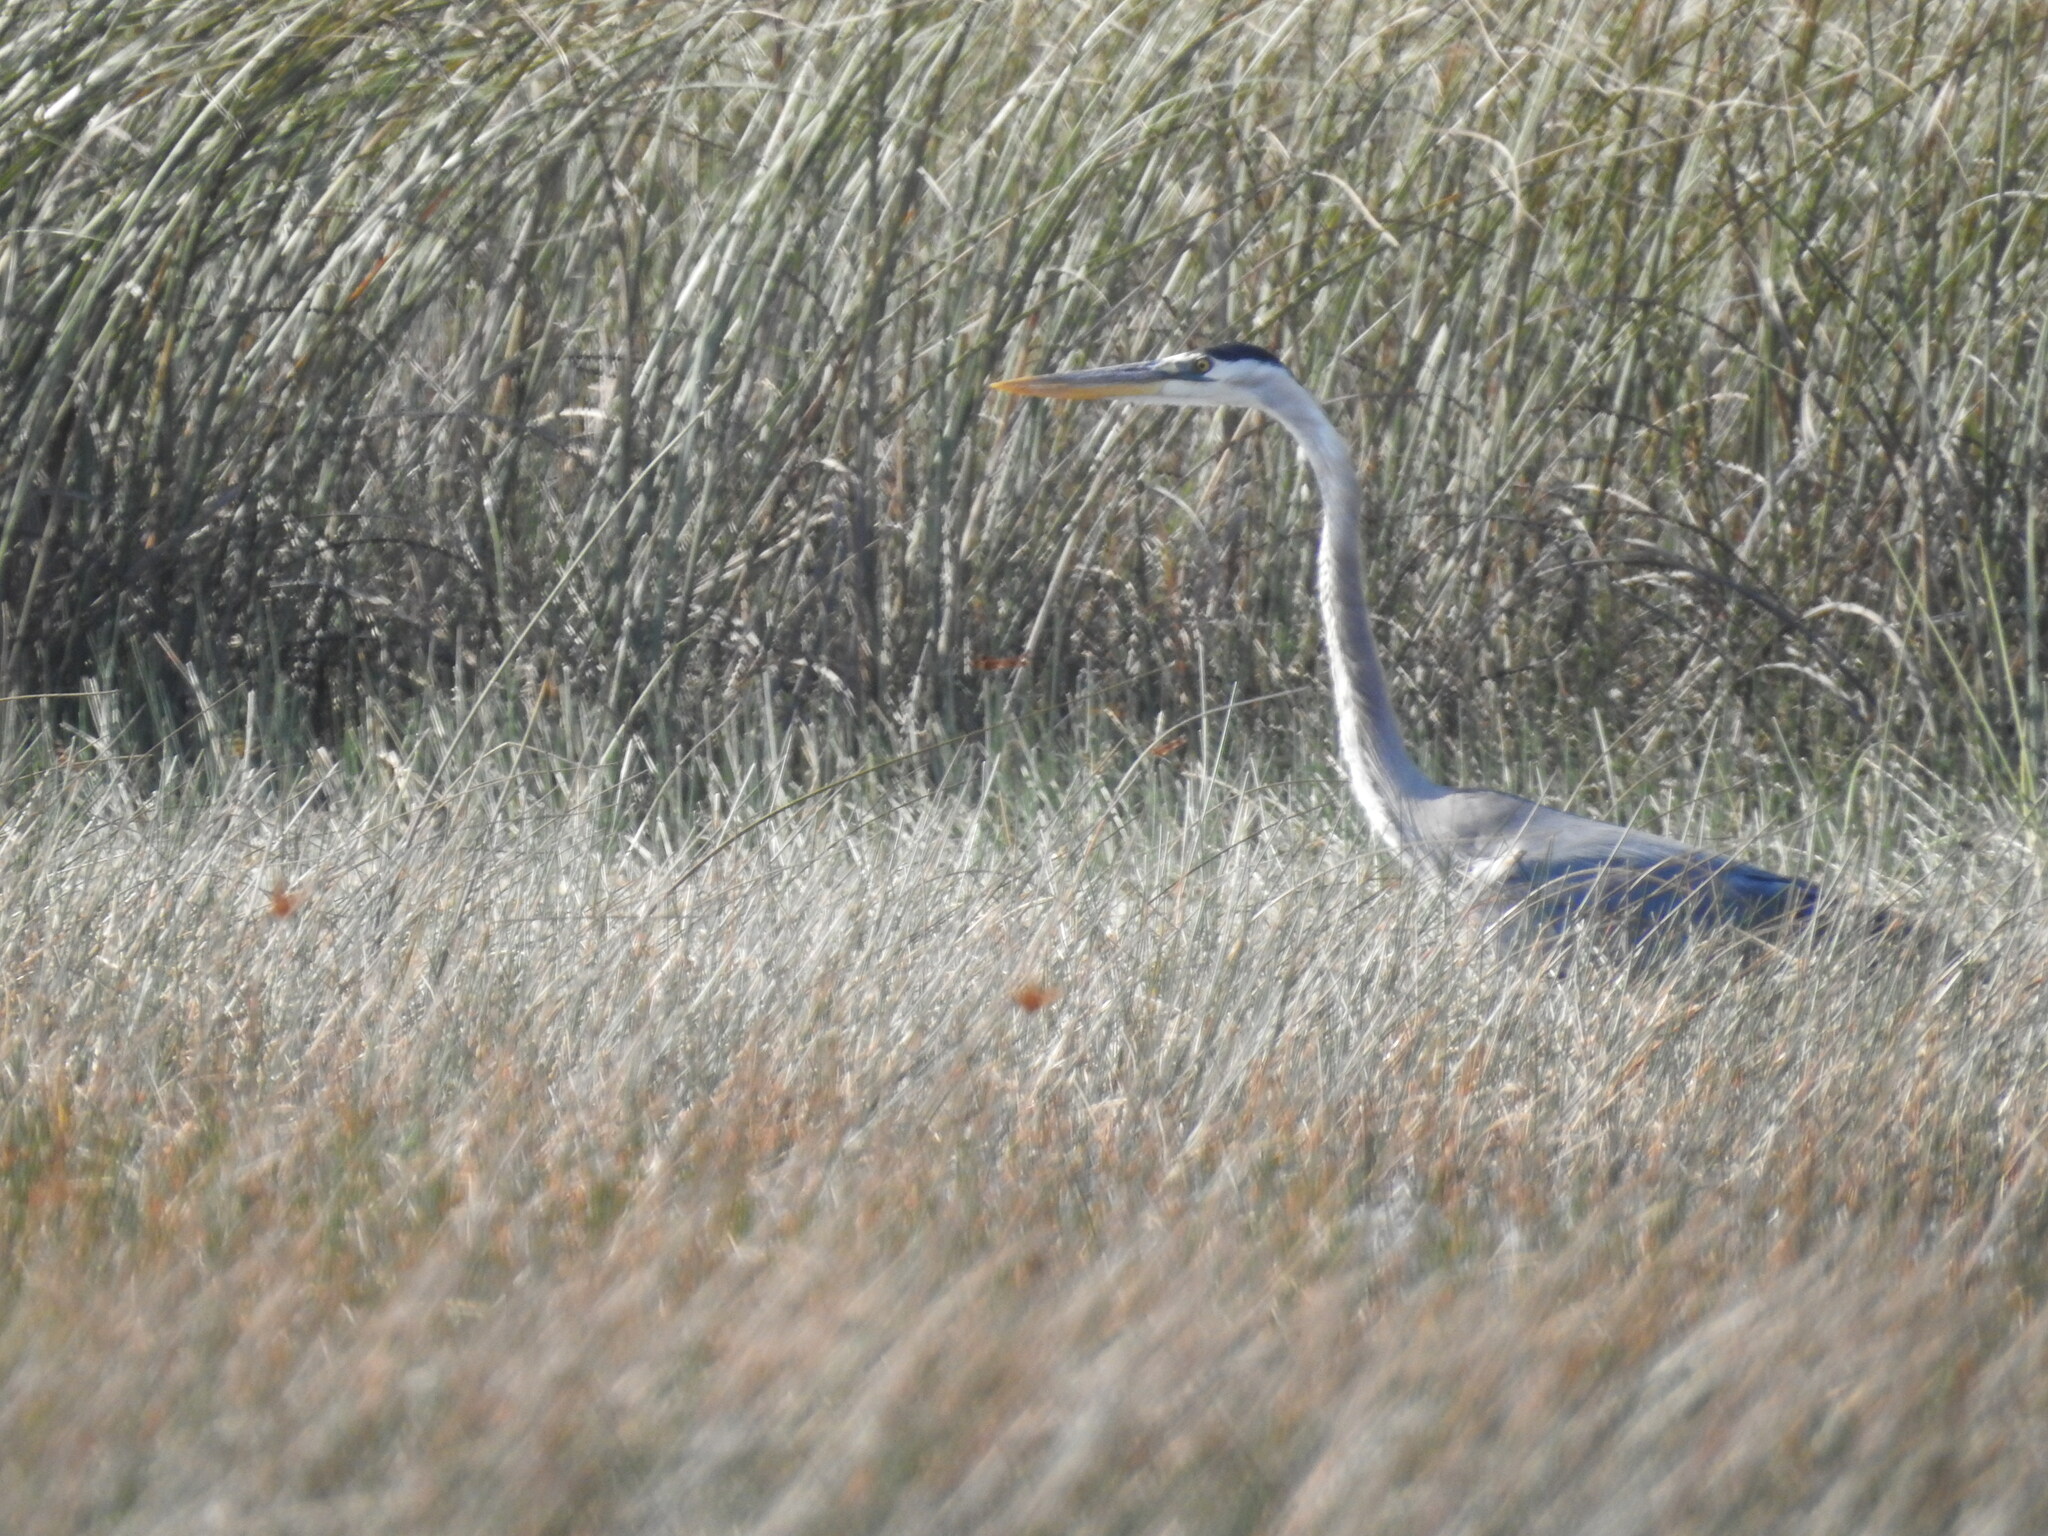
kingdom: Animalia
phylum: Chordata
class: Aves
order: Pelecaniformes
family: Ardeidae
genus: Ardea
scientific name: Ardea herodias
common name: Great blue heron
